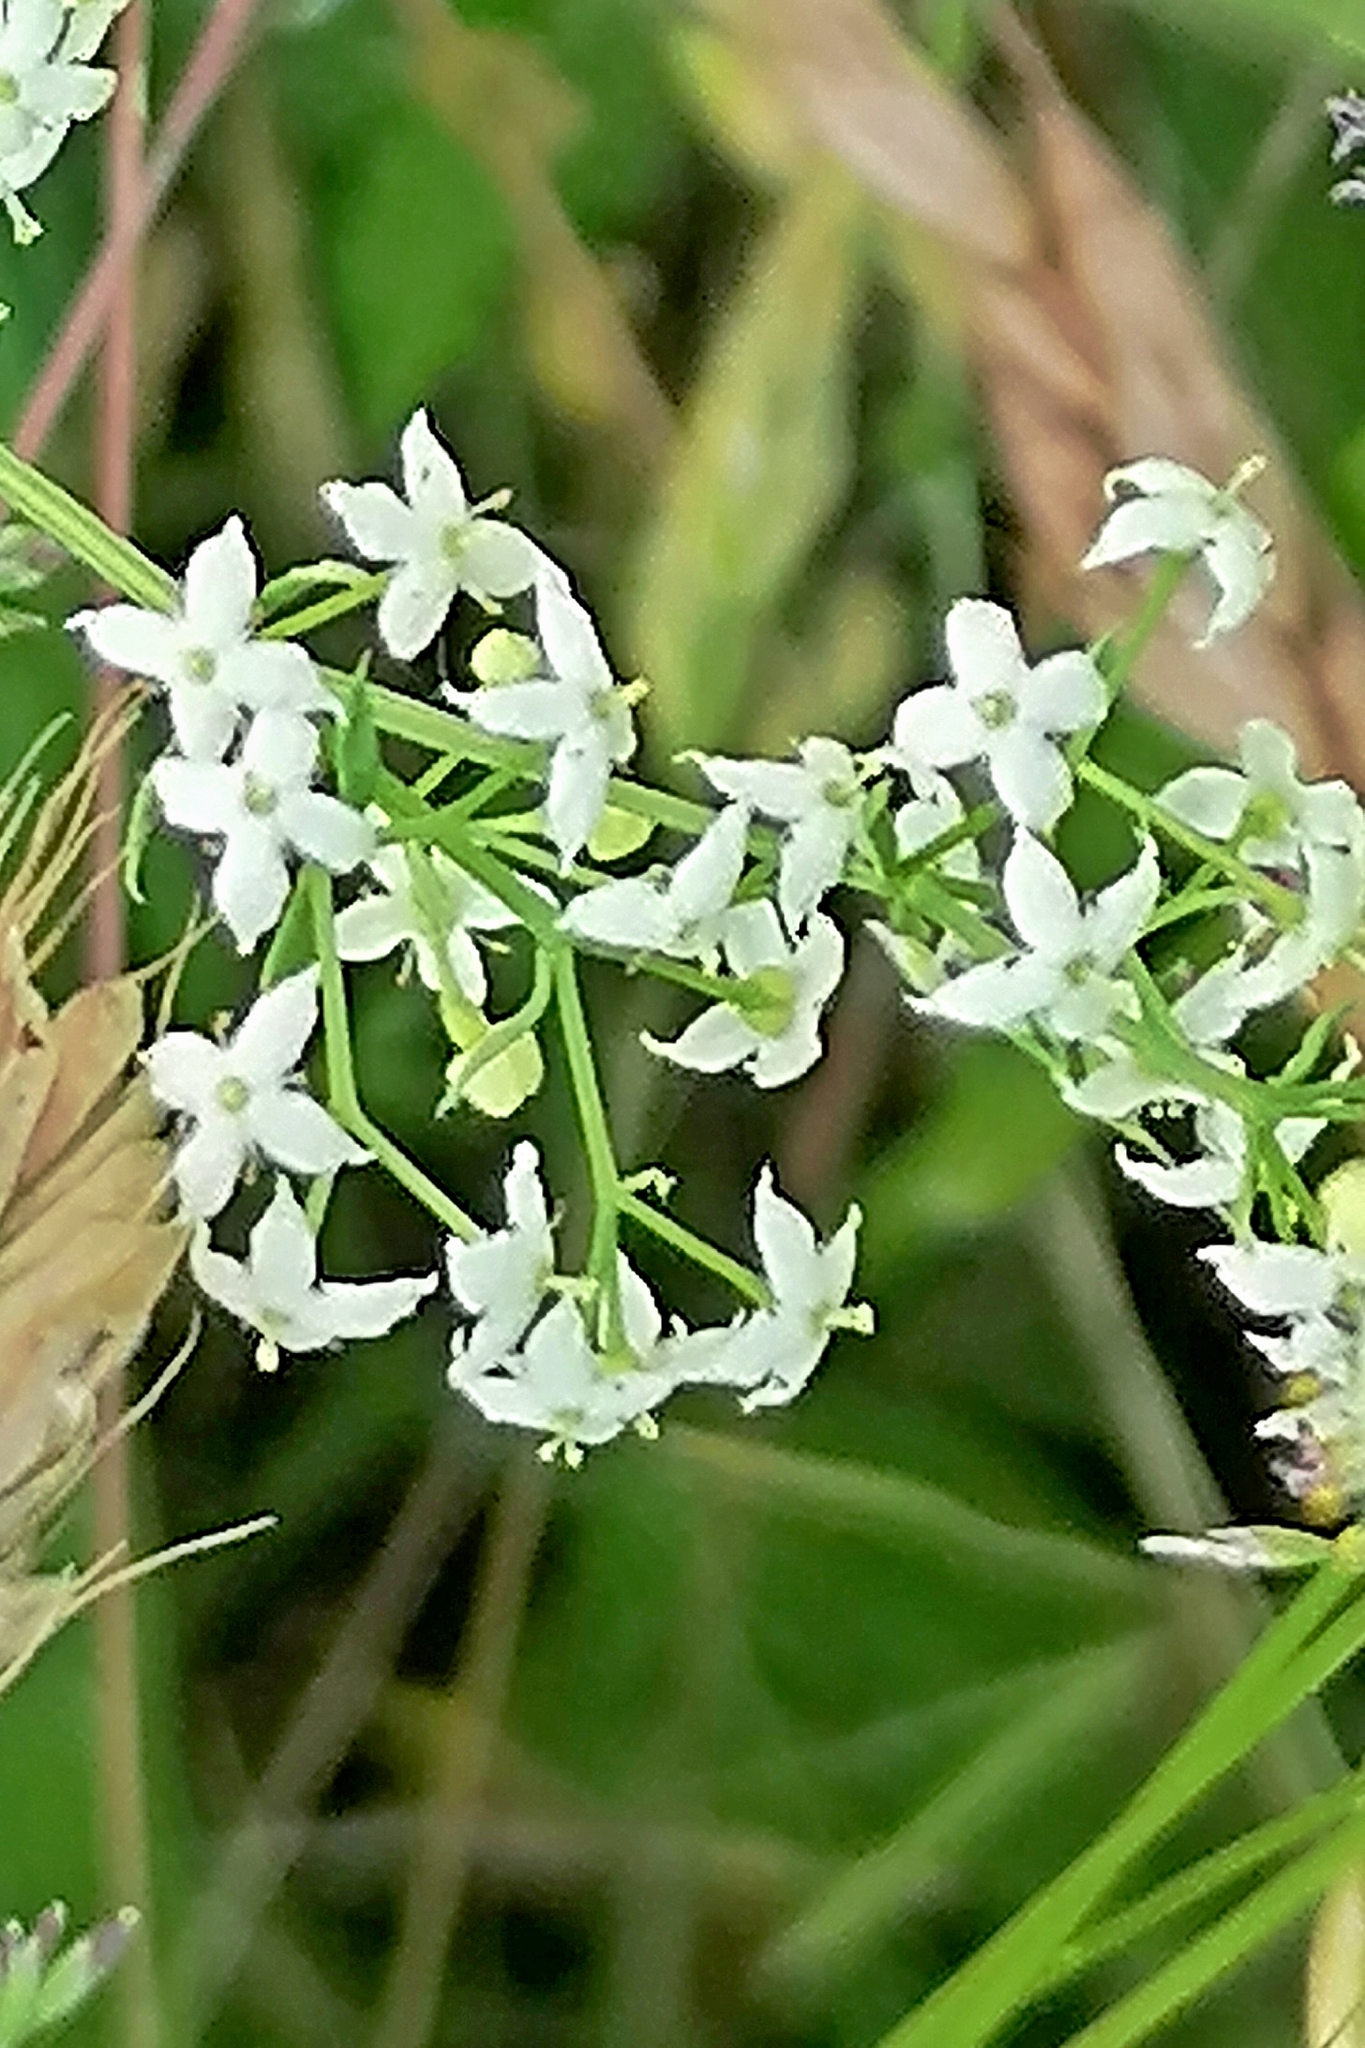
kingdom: Plantae
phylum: Tracheophyta
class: Magnoliopsida
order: Gentianales
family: Rubiaceae
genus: Galium
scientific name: Galium mollugo
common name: Hedge bedstraw
